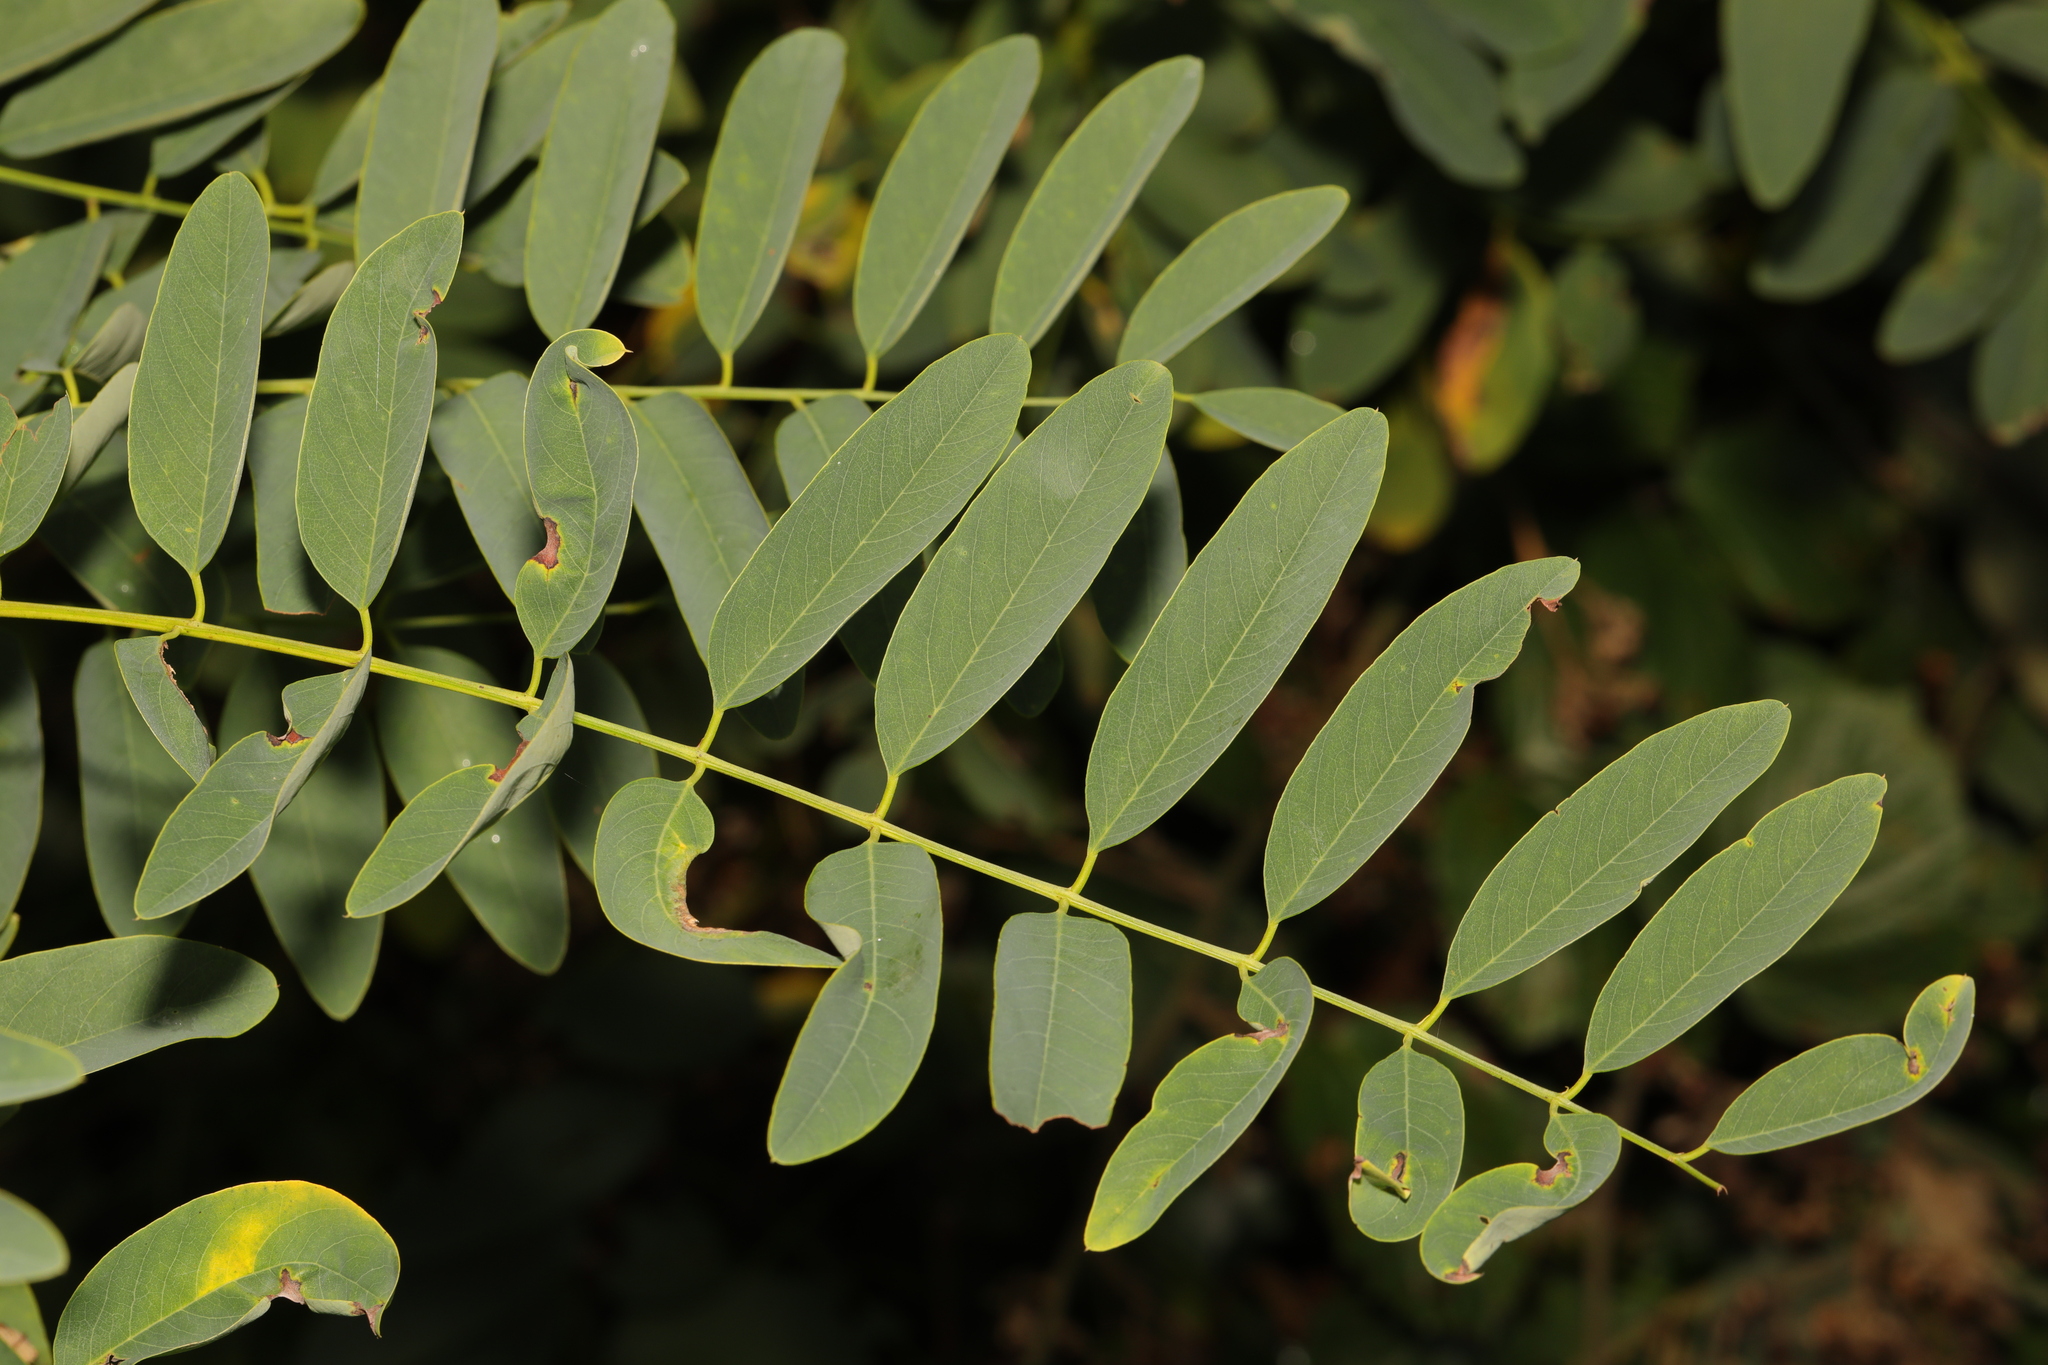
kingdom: Plantae
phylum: Tracheophyta
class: Magnoliopsida
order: Fabales
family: Fabaceae
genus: Robinia
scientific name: Robinia pseudoacacia
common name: Black locust
